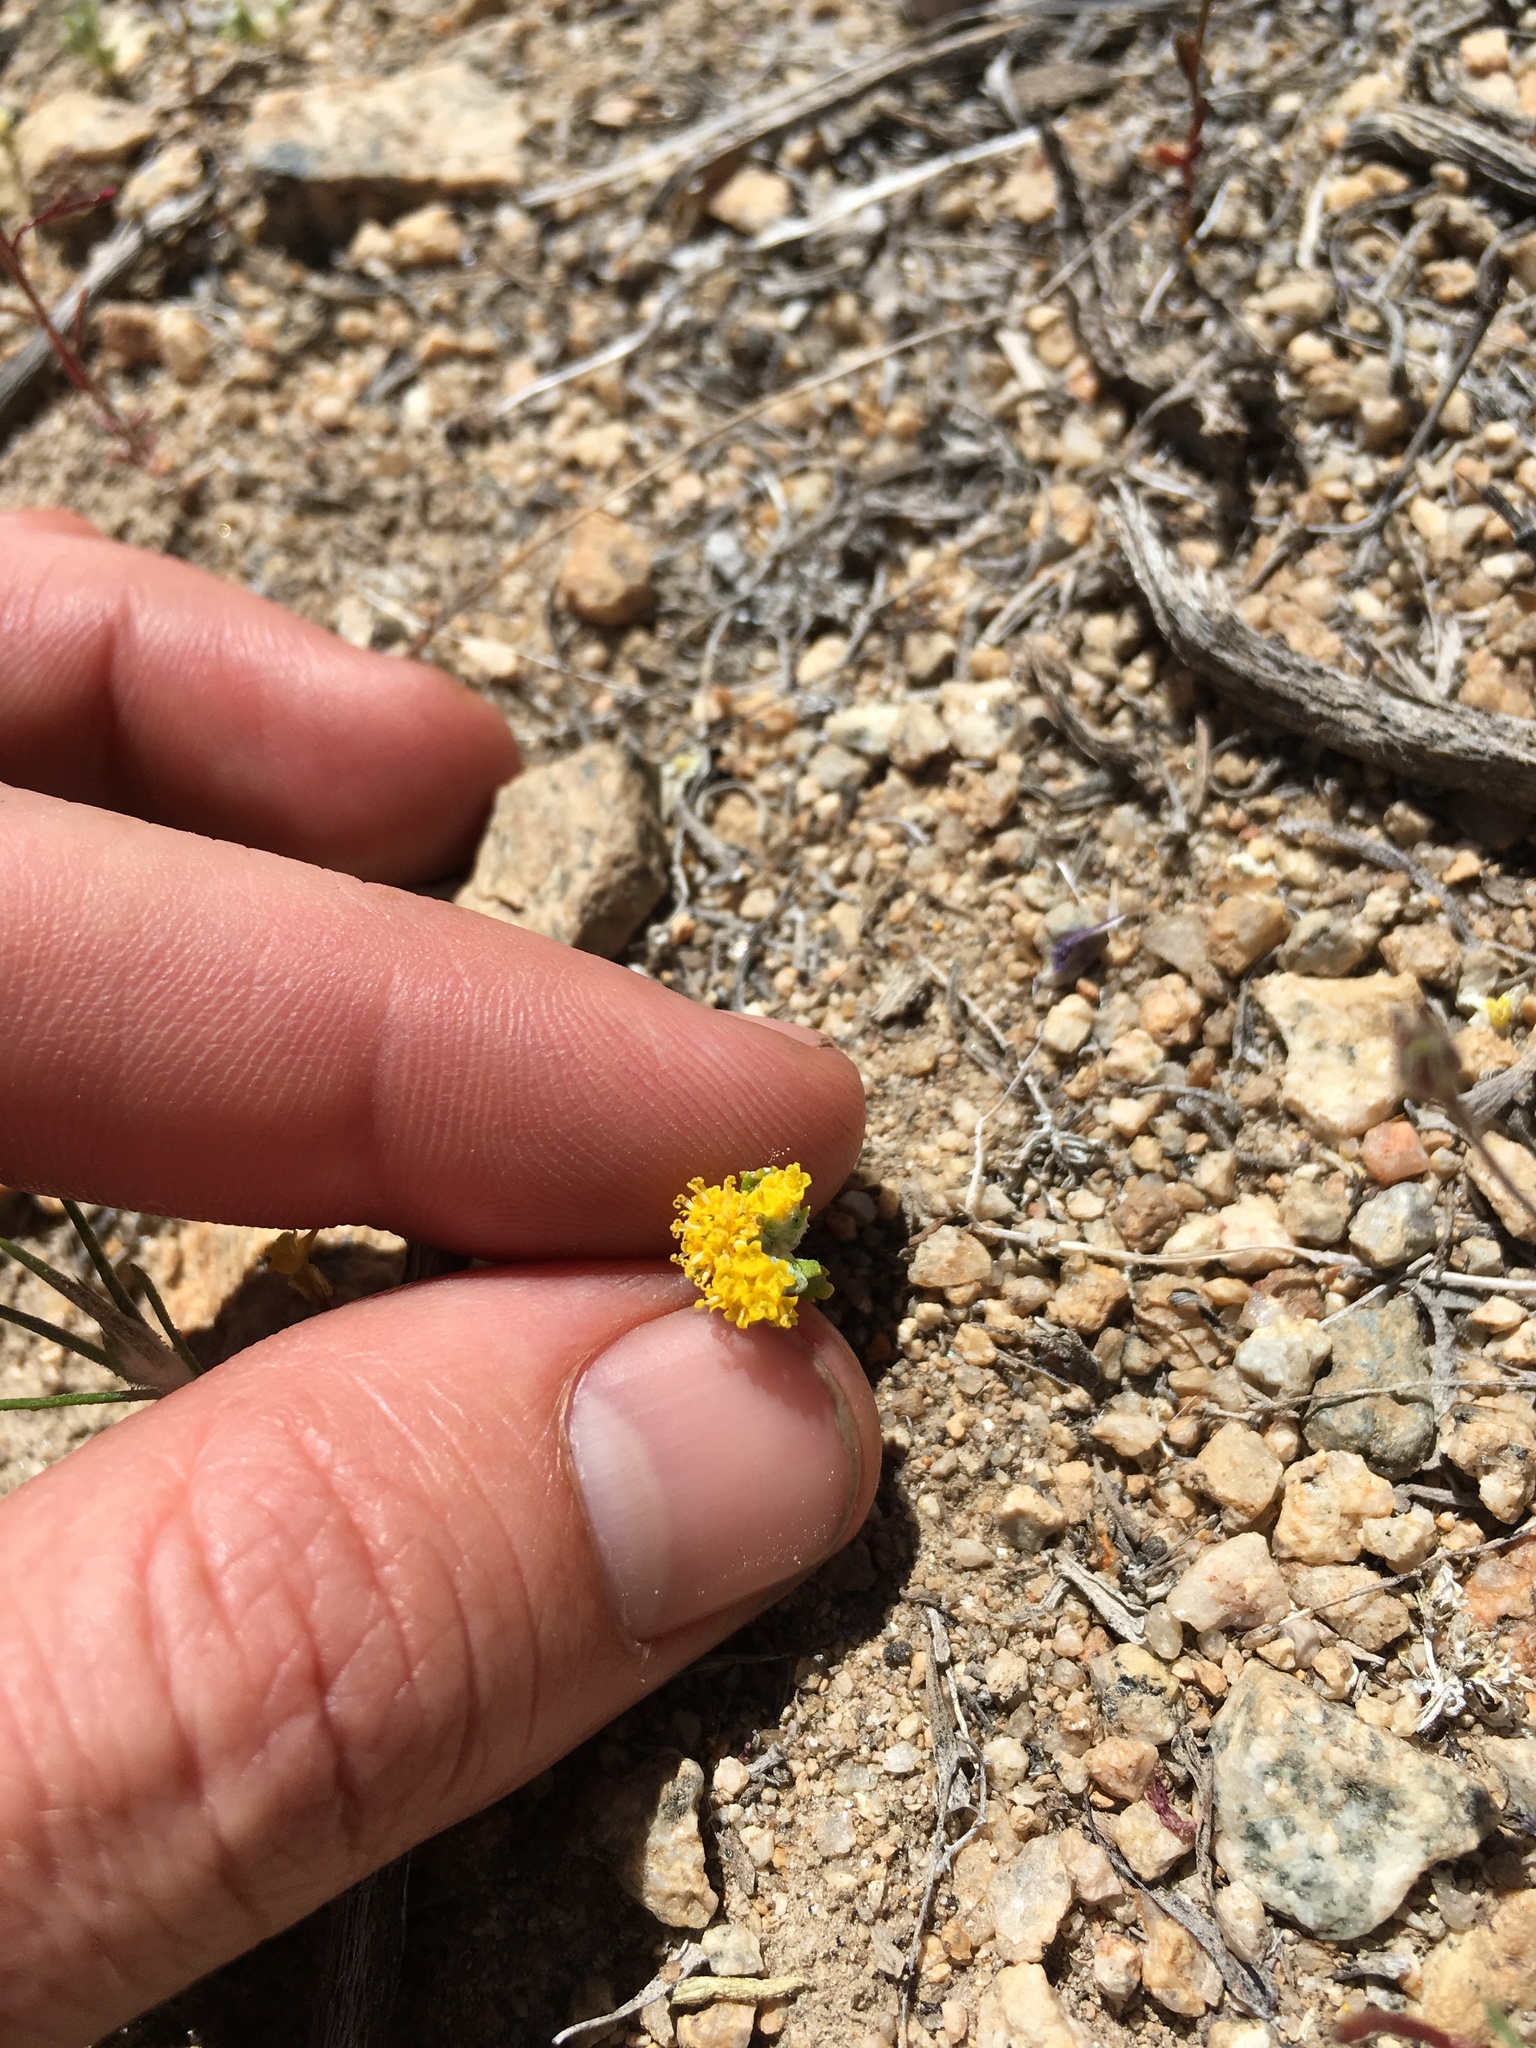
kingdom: Plantae
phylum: Tracheophyta
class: Magnoliopsida
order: Asterales
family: Asteraceae
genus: Eriophyllum
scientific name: Eriophyllum pringlei
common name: Pringle's woolly-sunflower
